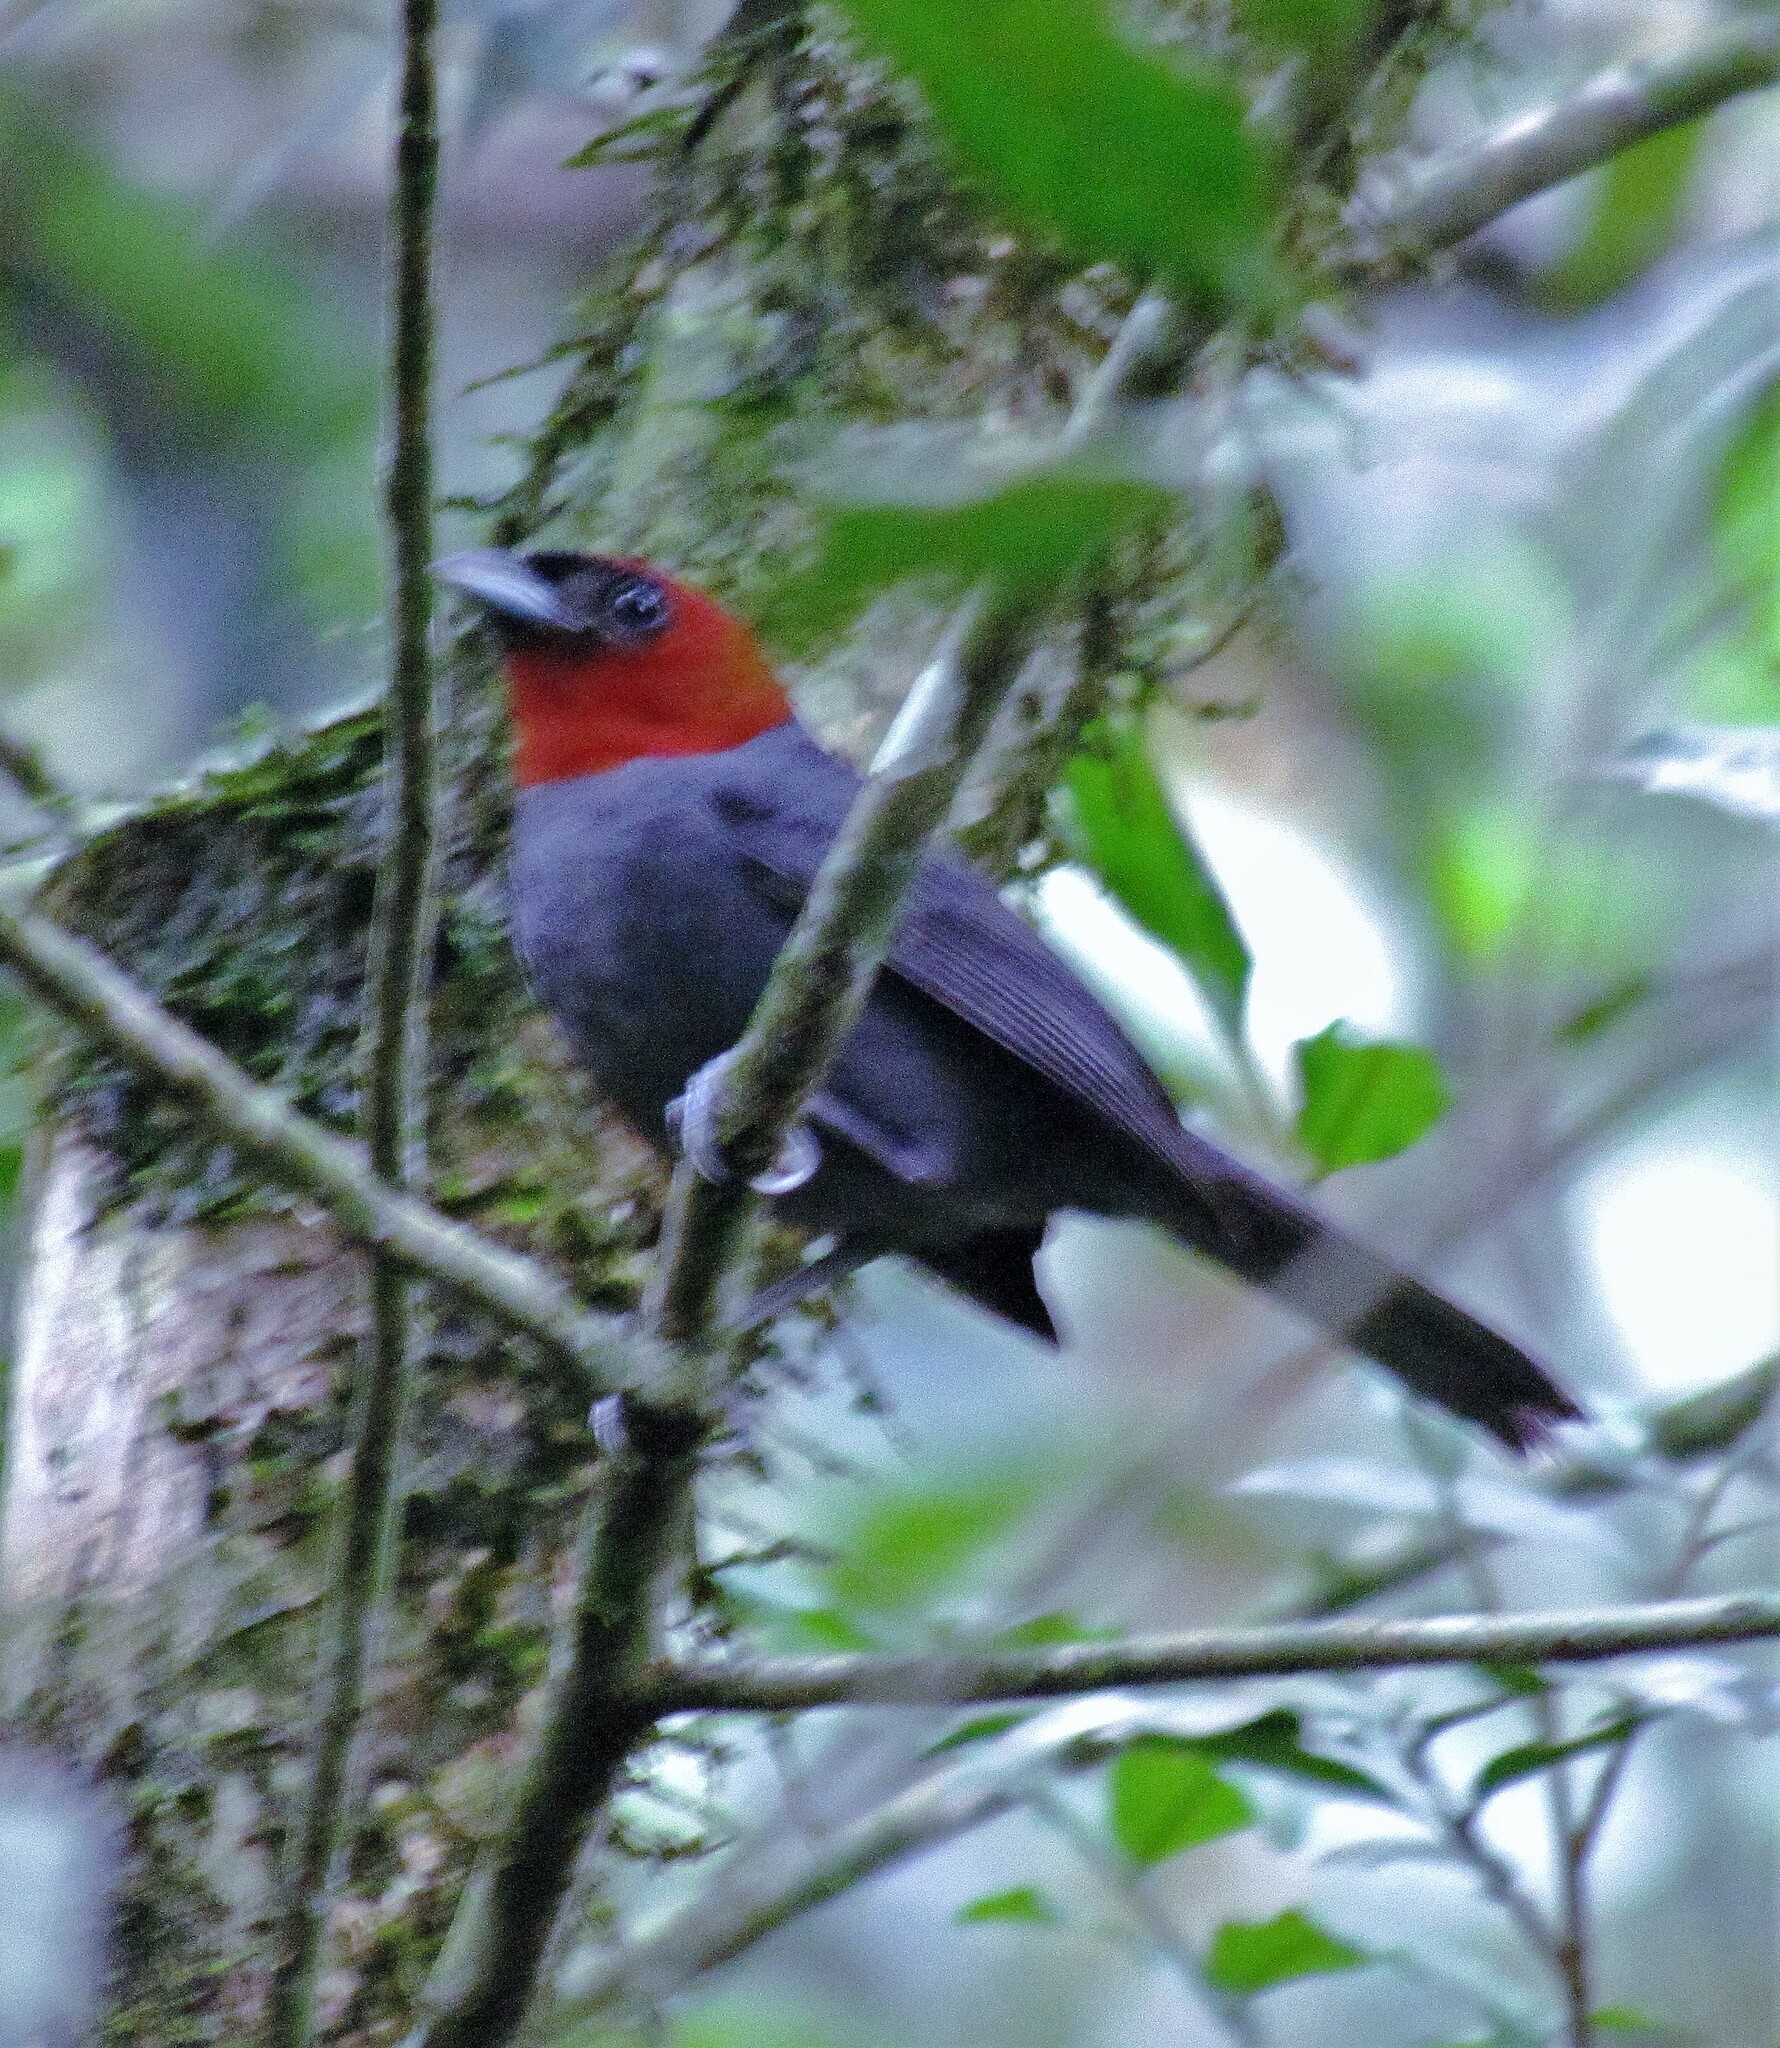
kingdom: Animalia
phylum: Chordata
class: Aves
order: Passeriformes
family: Thraupidae
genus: Thlypopsis
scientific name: Thlypopsis pyrrhocoma
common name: Chestnut-headed tanager
